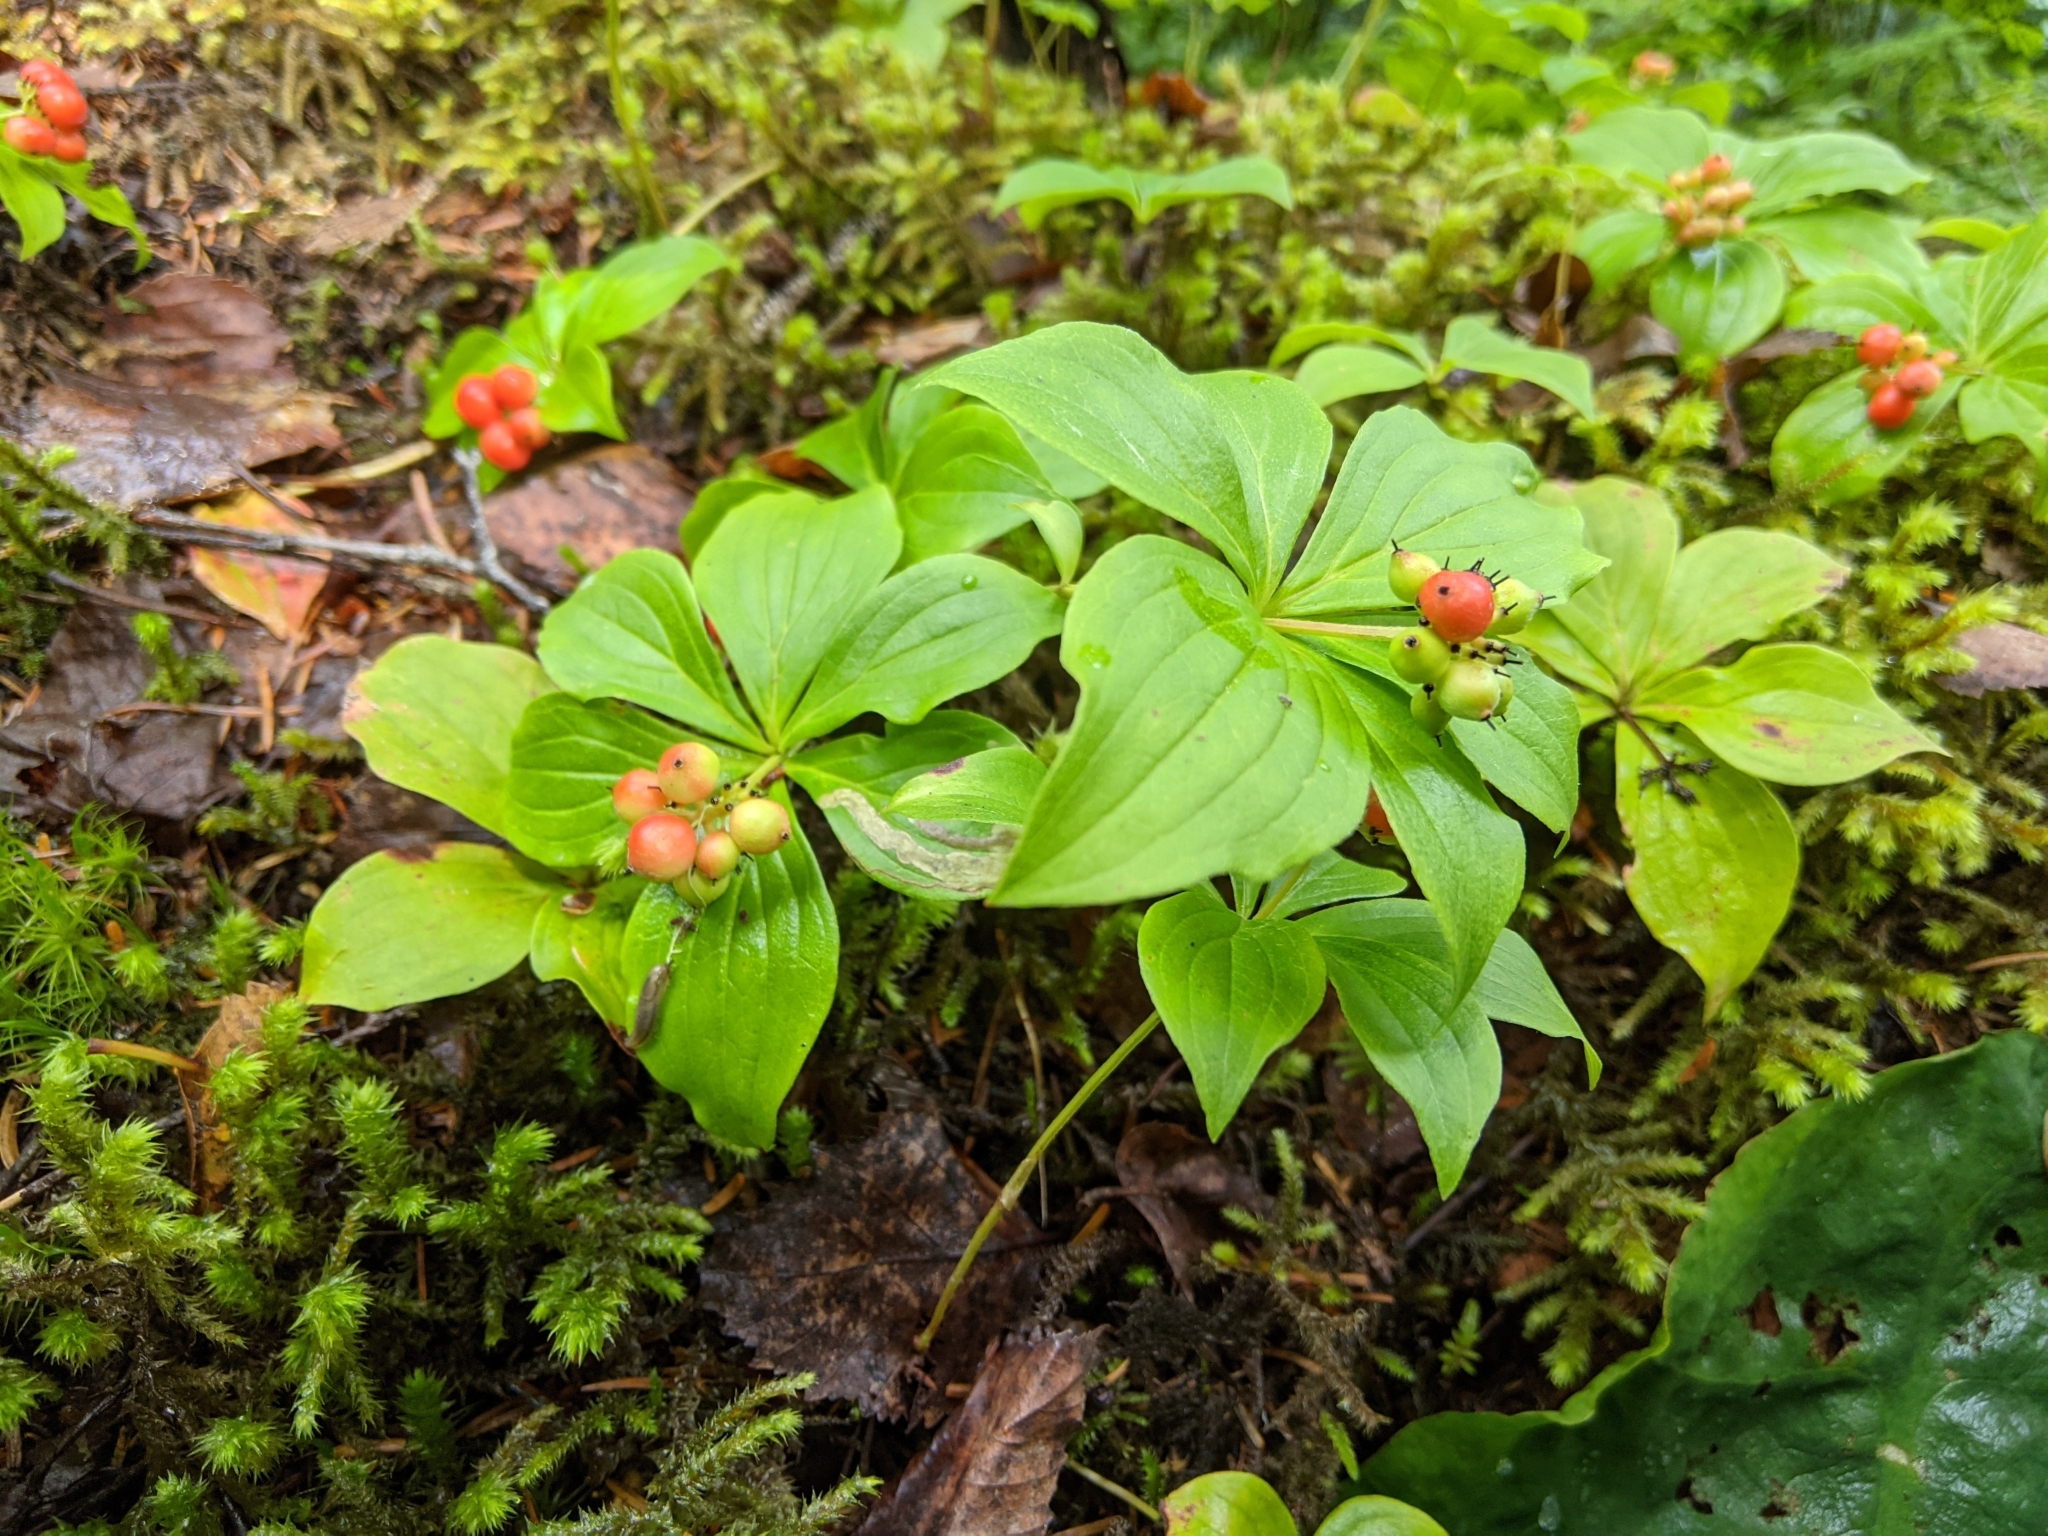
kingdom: Plantae
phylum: Tracheophyta
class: Magnoliopsida
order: Cornales
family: Cornaceae
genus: Cornus
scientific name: Cornus unalaschkensis
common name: Alaska bunchberry
